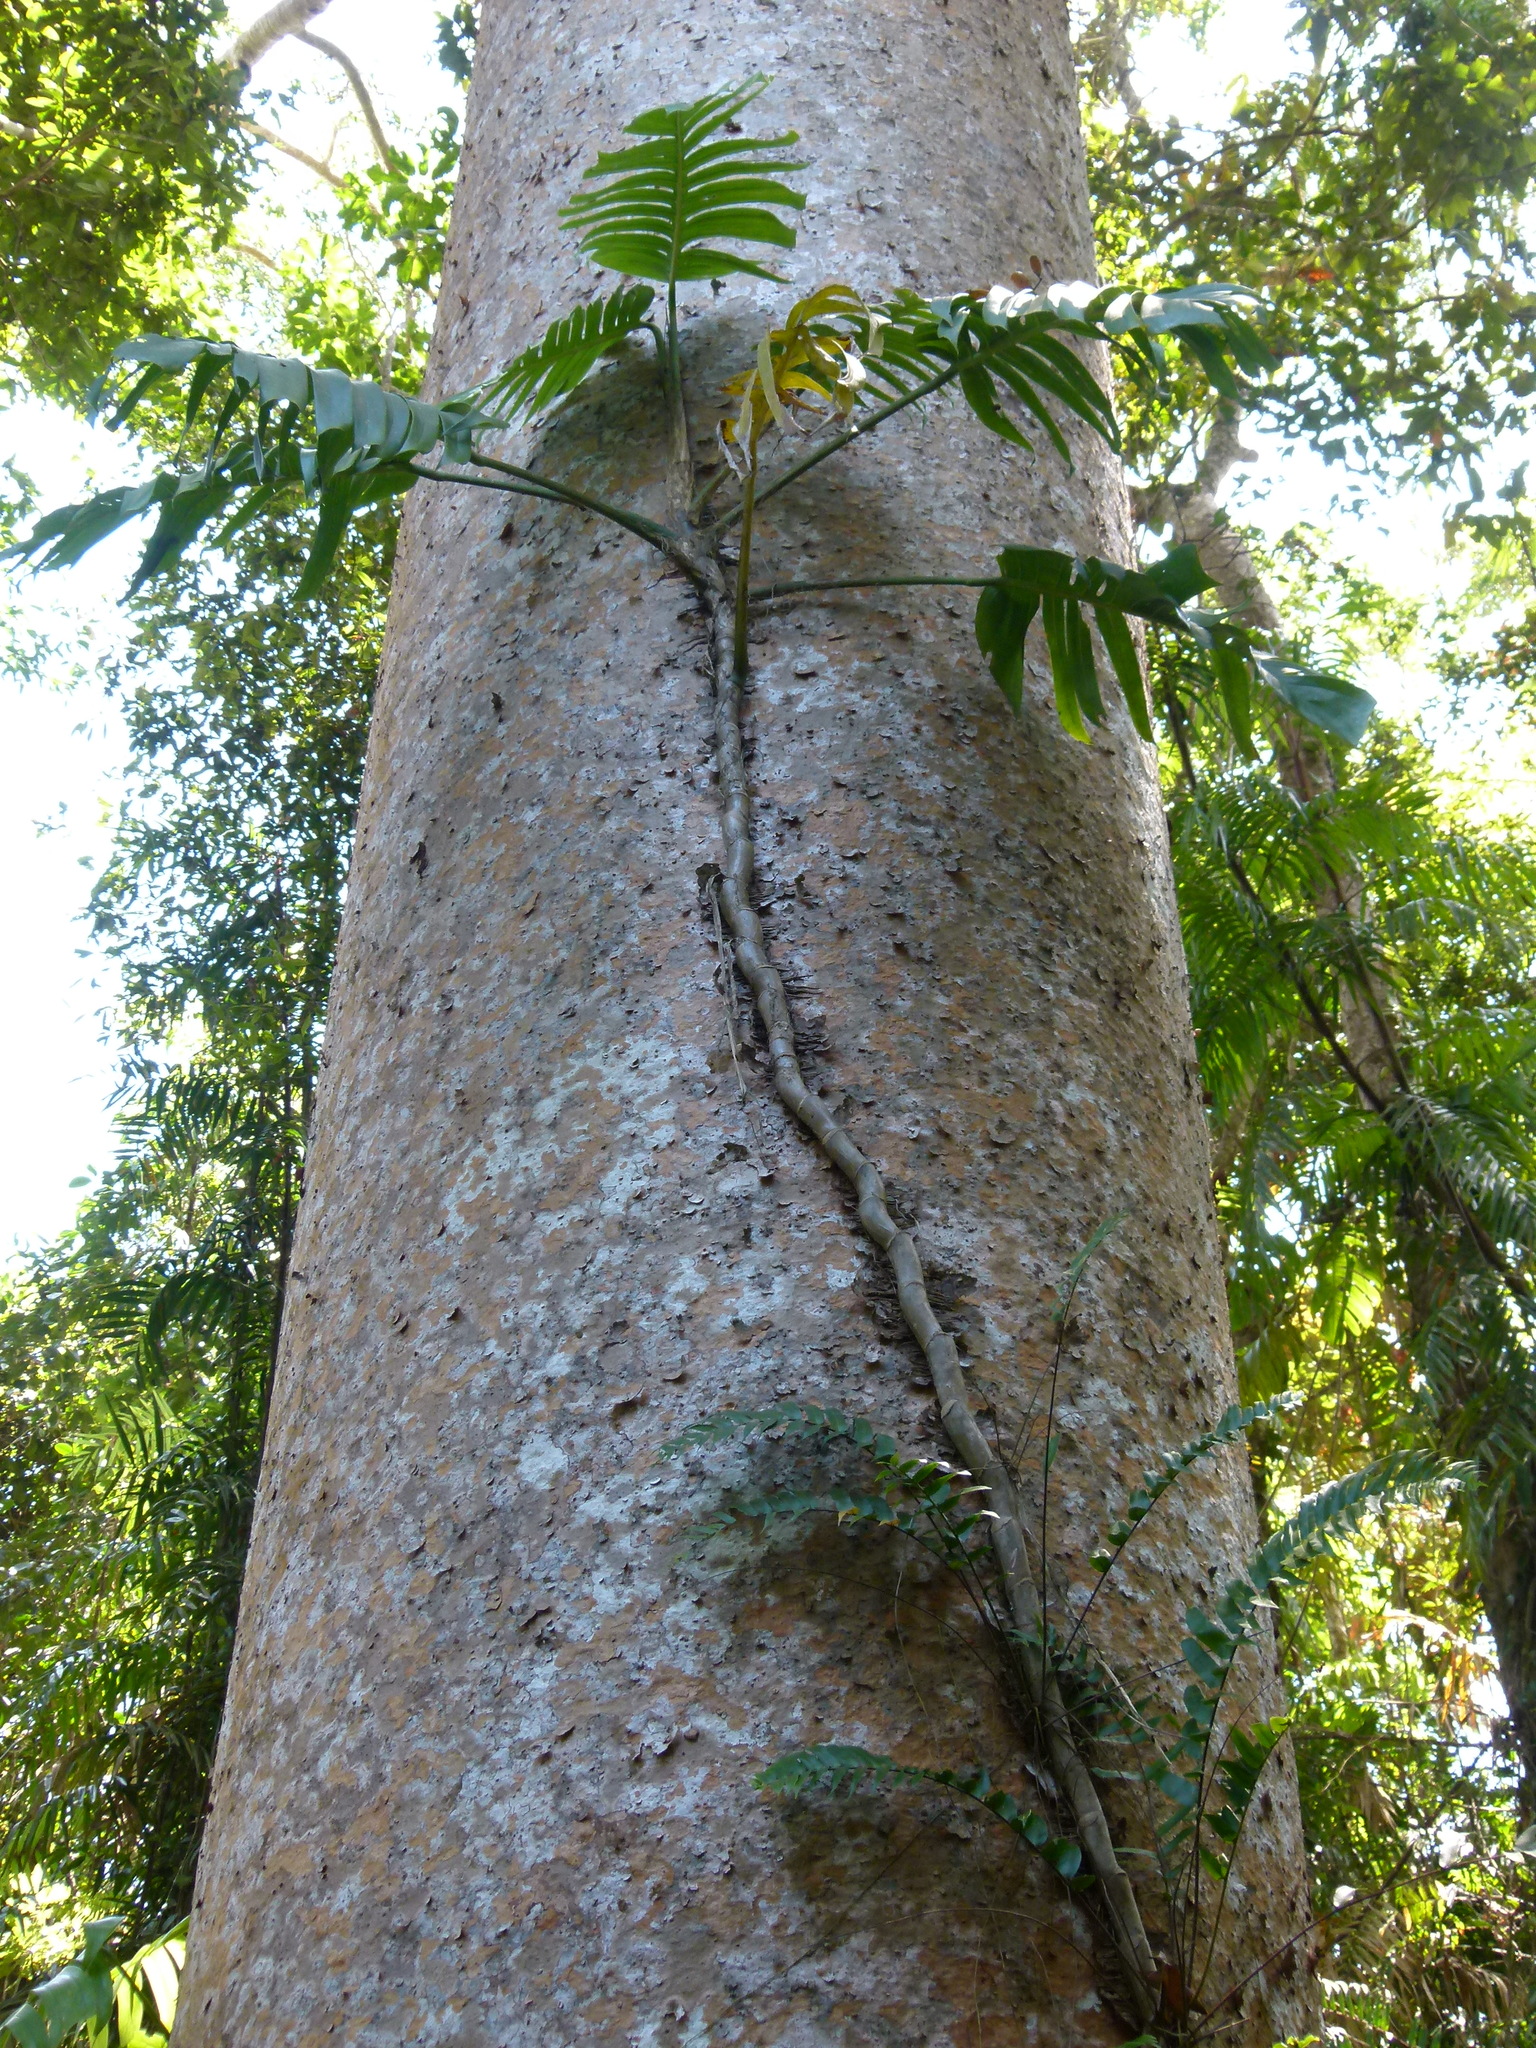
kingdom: Plantae
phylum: Tracheophyta
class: Liliopsida
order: Alismatales
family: Araceae
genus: Epipremnum
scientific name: Epipremnum pinnatum
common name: Centipede tongavine
